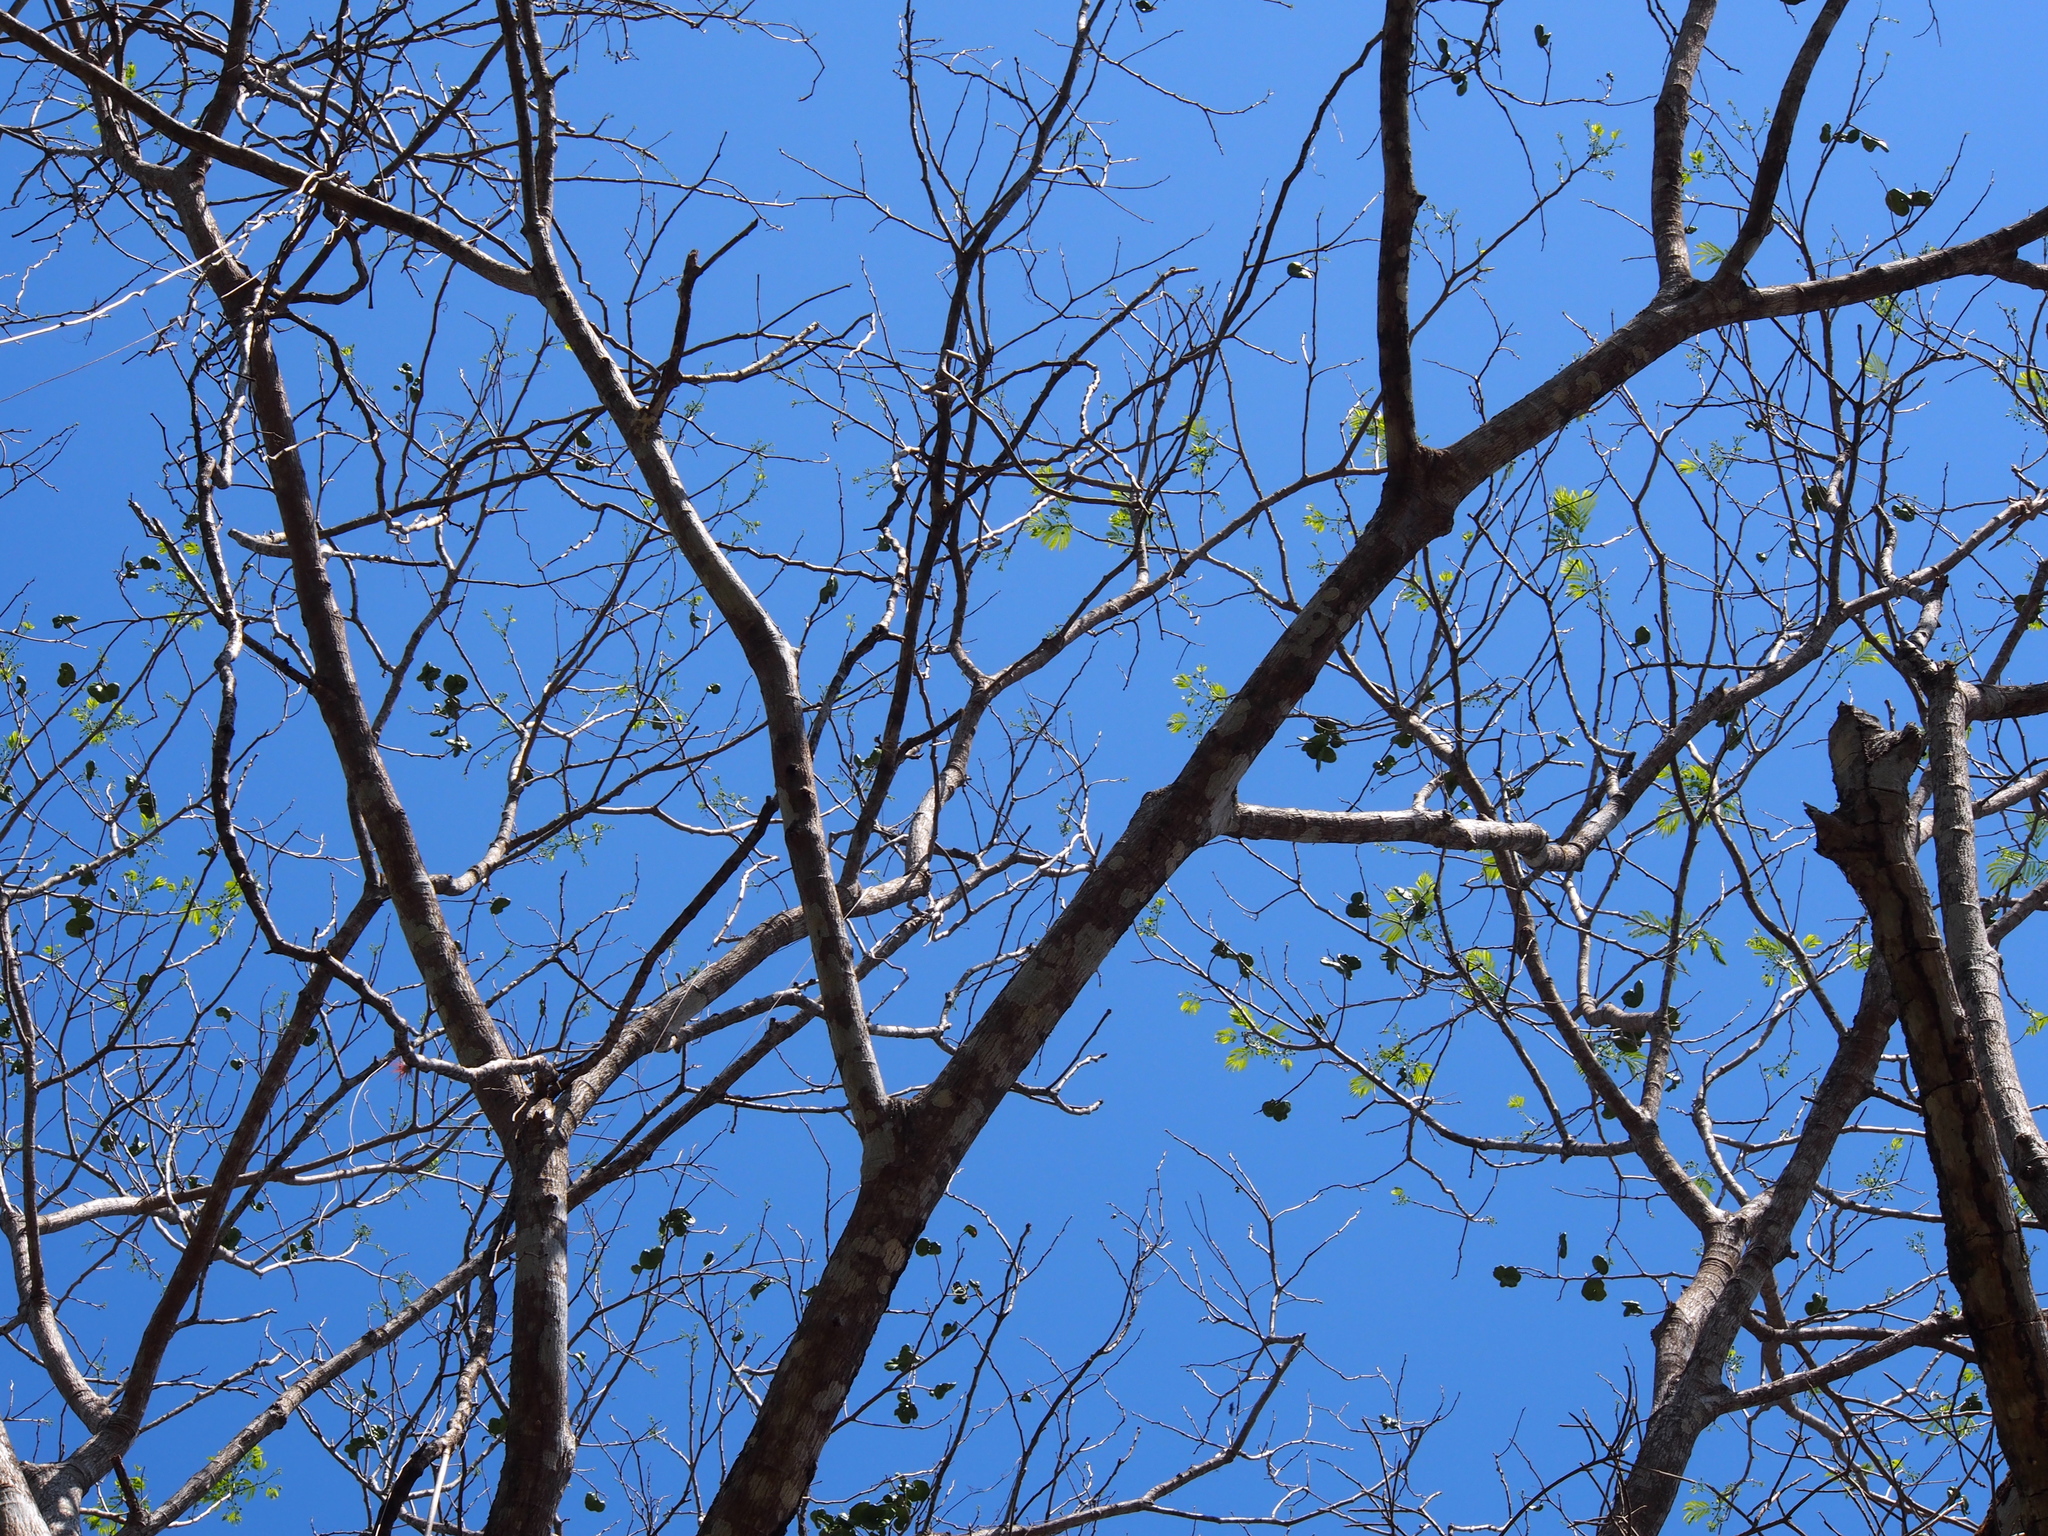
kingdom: Plantae
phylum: Tracheophyta
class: Magnoliopsida
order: Fabales
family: Fabaceae
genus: Enterolobium
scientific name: Enterolobium cyclocarpum
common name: Ear tree
